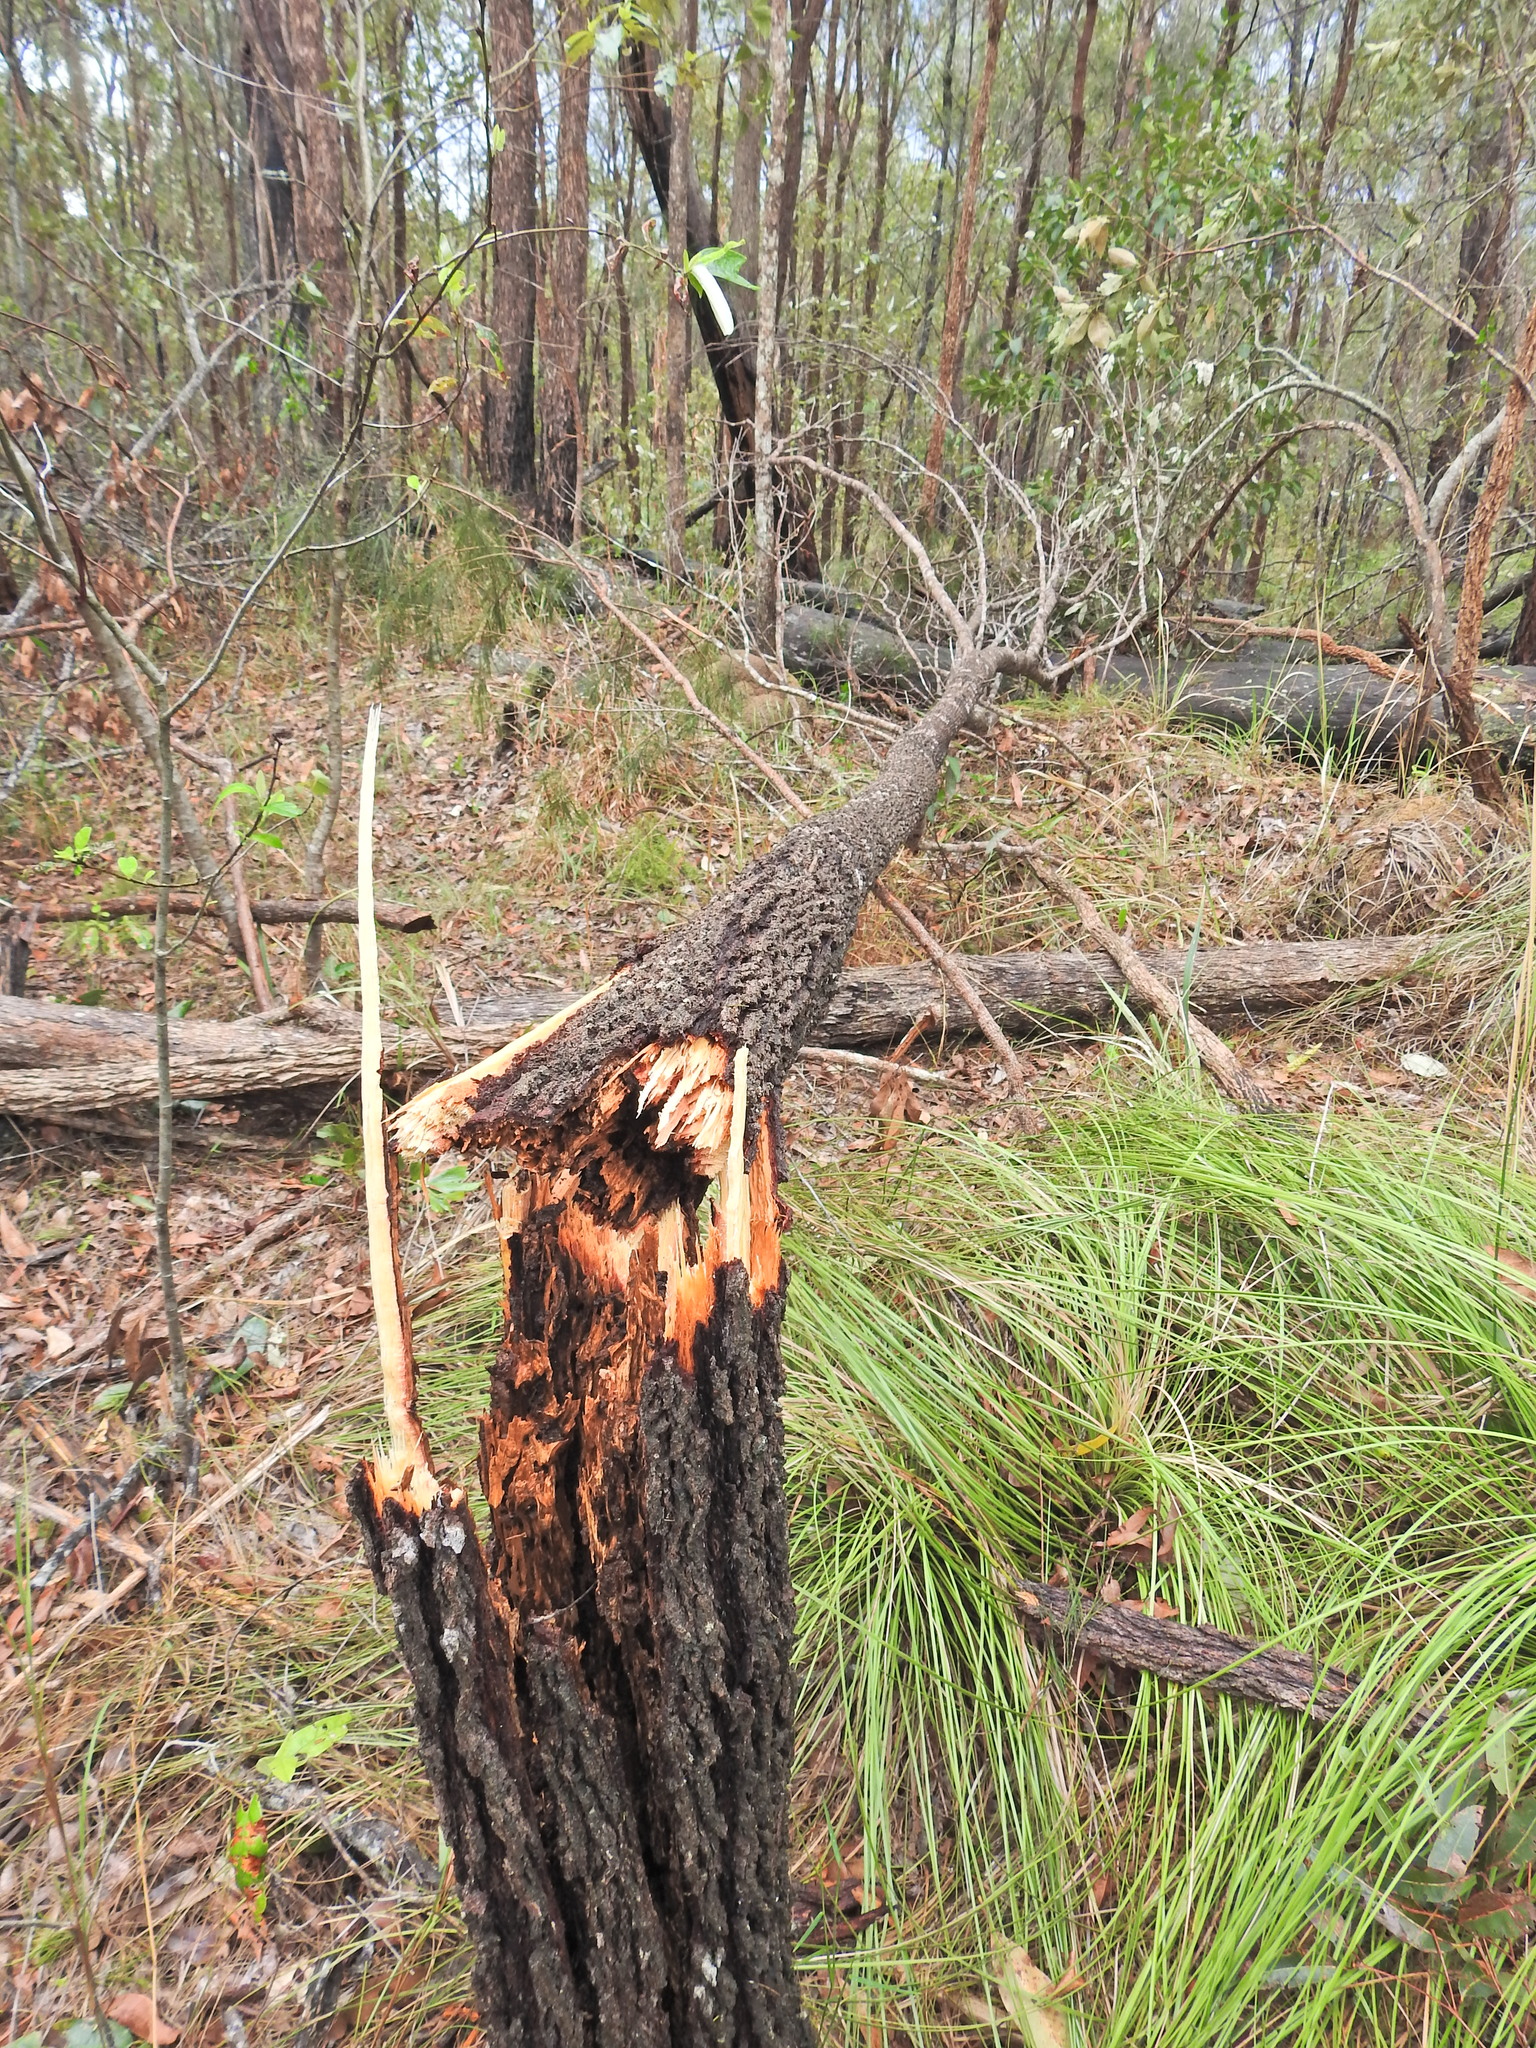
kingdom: Plantae
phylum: Tracheophyta
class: Magnoliopsida
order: Fagales
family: Casuarinaceae
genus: Allocasuarina
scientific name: Allocasuarina littoralis
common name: Black she-oak
